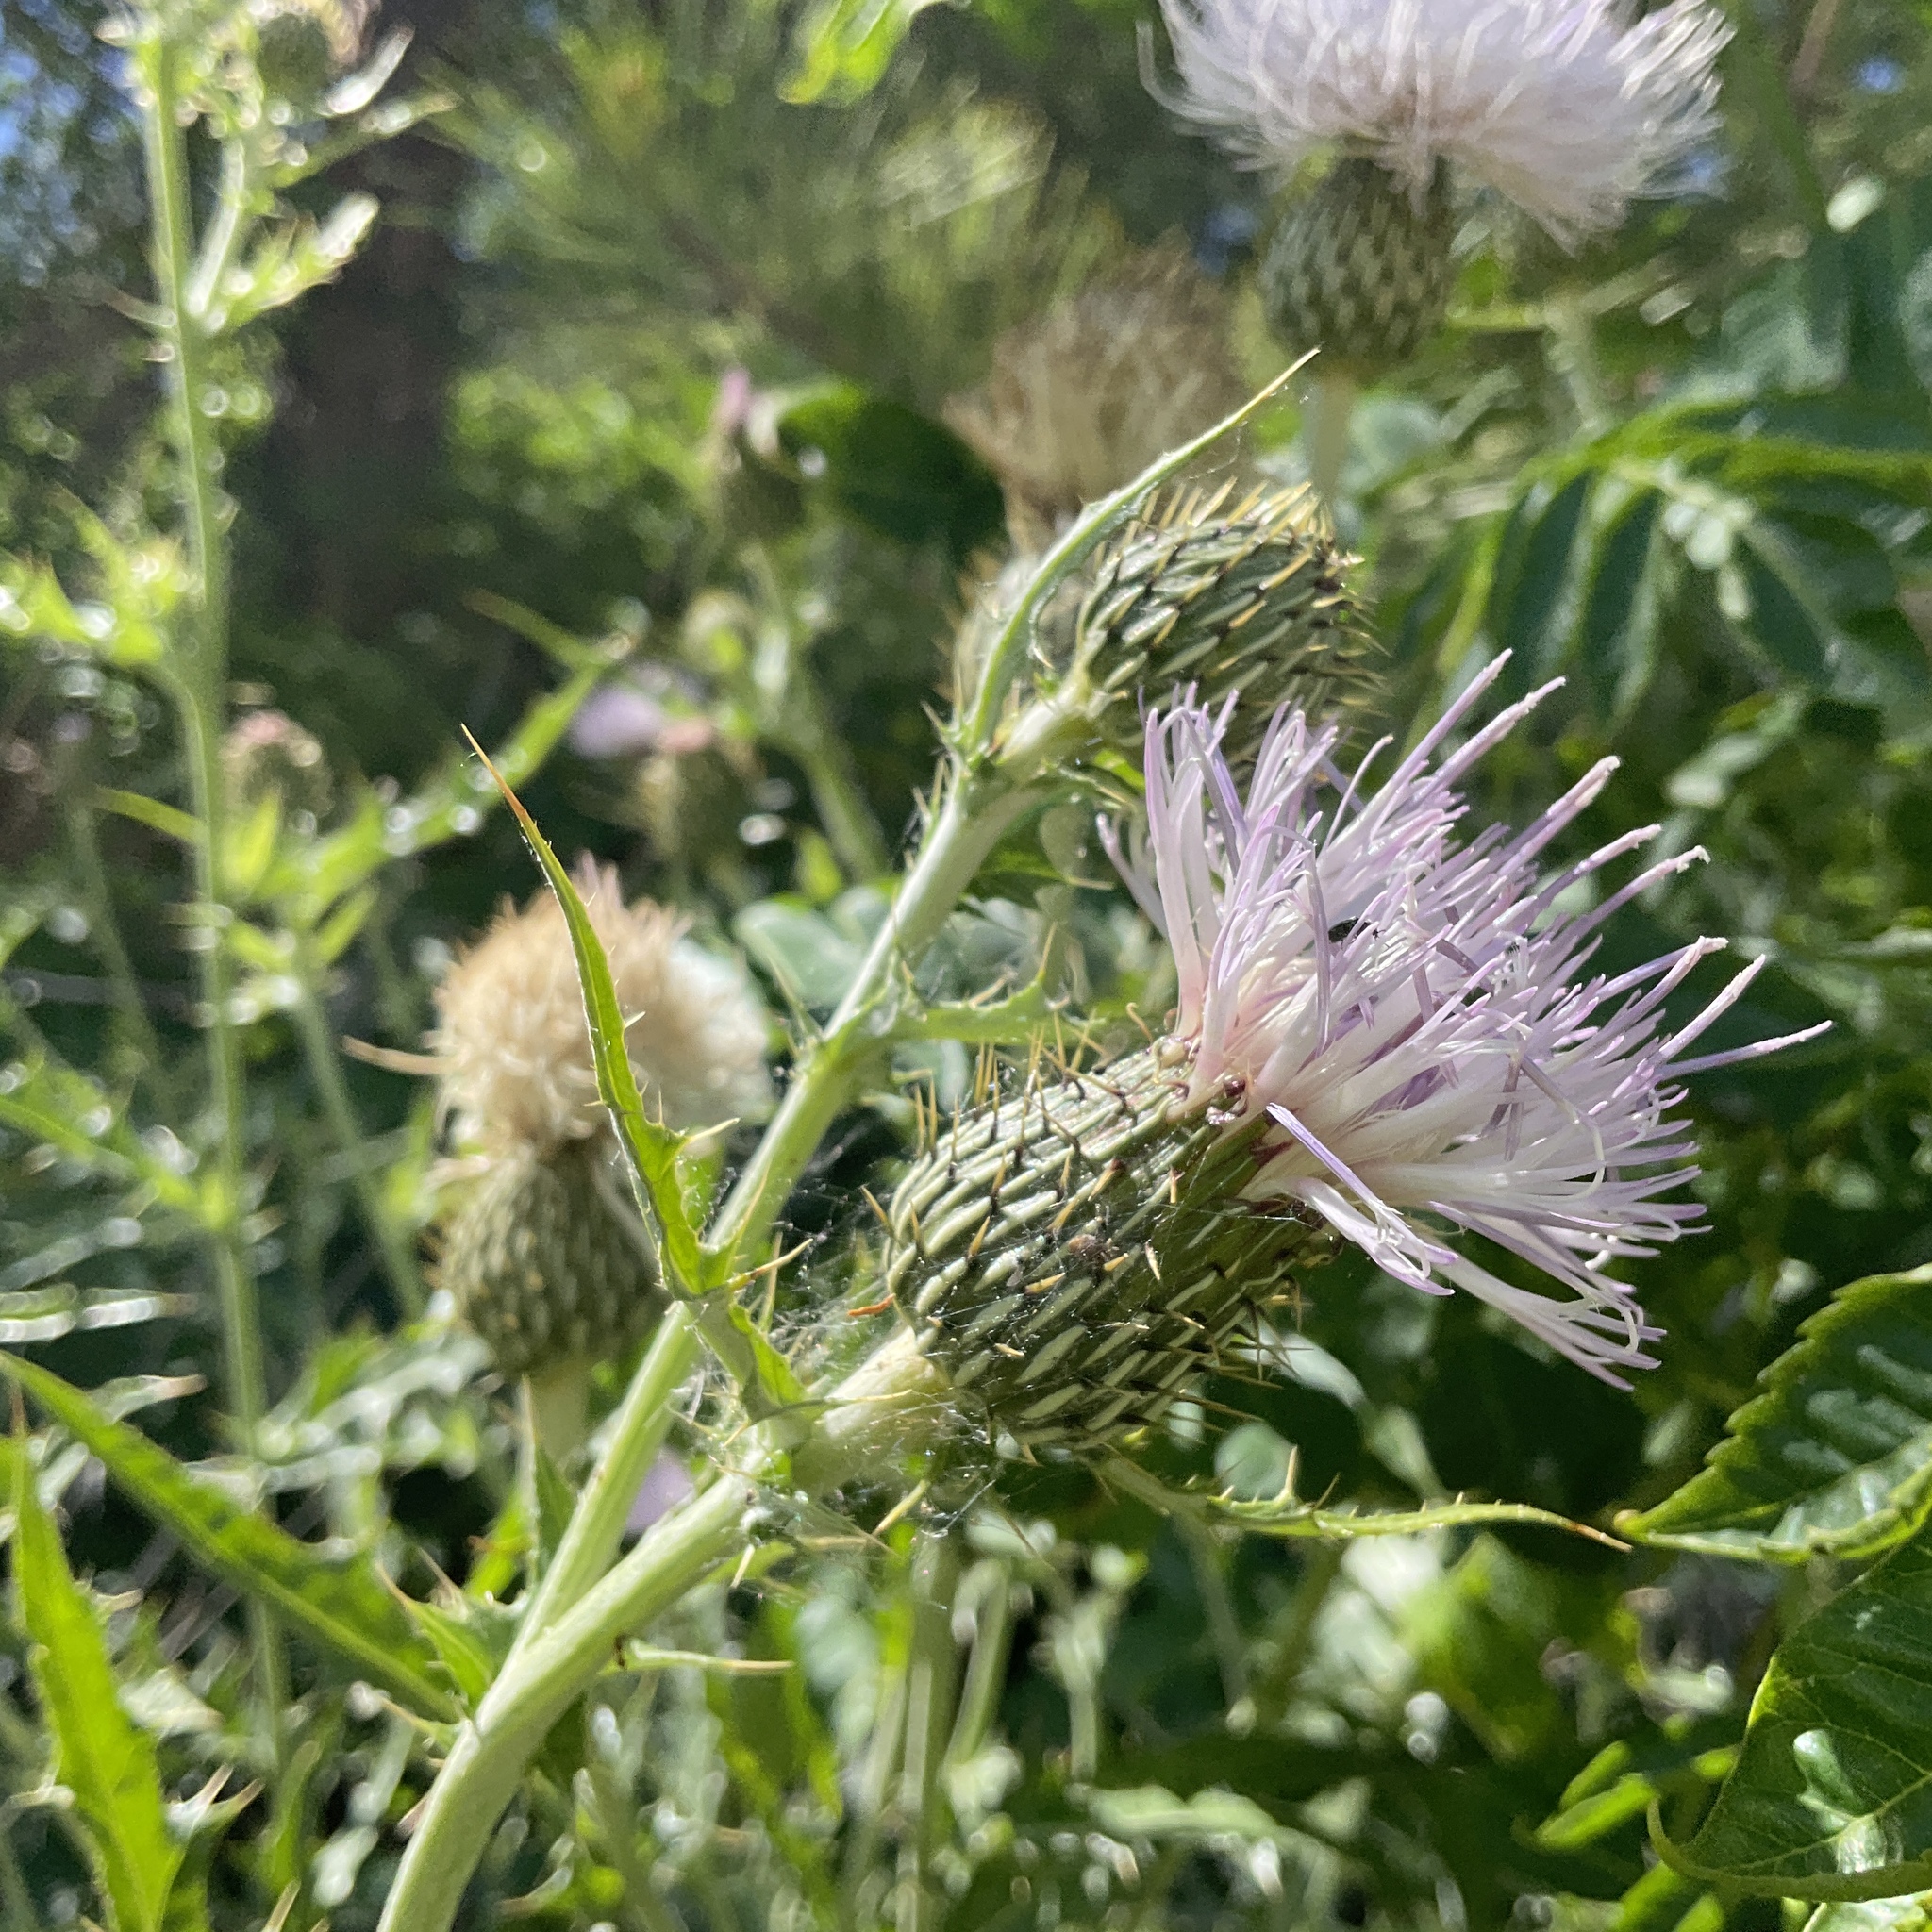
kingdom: Plantae
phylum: Tracheophyta
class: Magnoliopsida
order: Asterales
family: Asteraceae
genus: Cirsium
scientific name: Cirsium undulatum
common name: Pasture thistle
